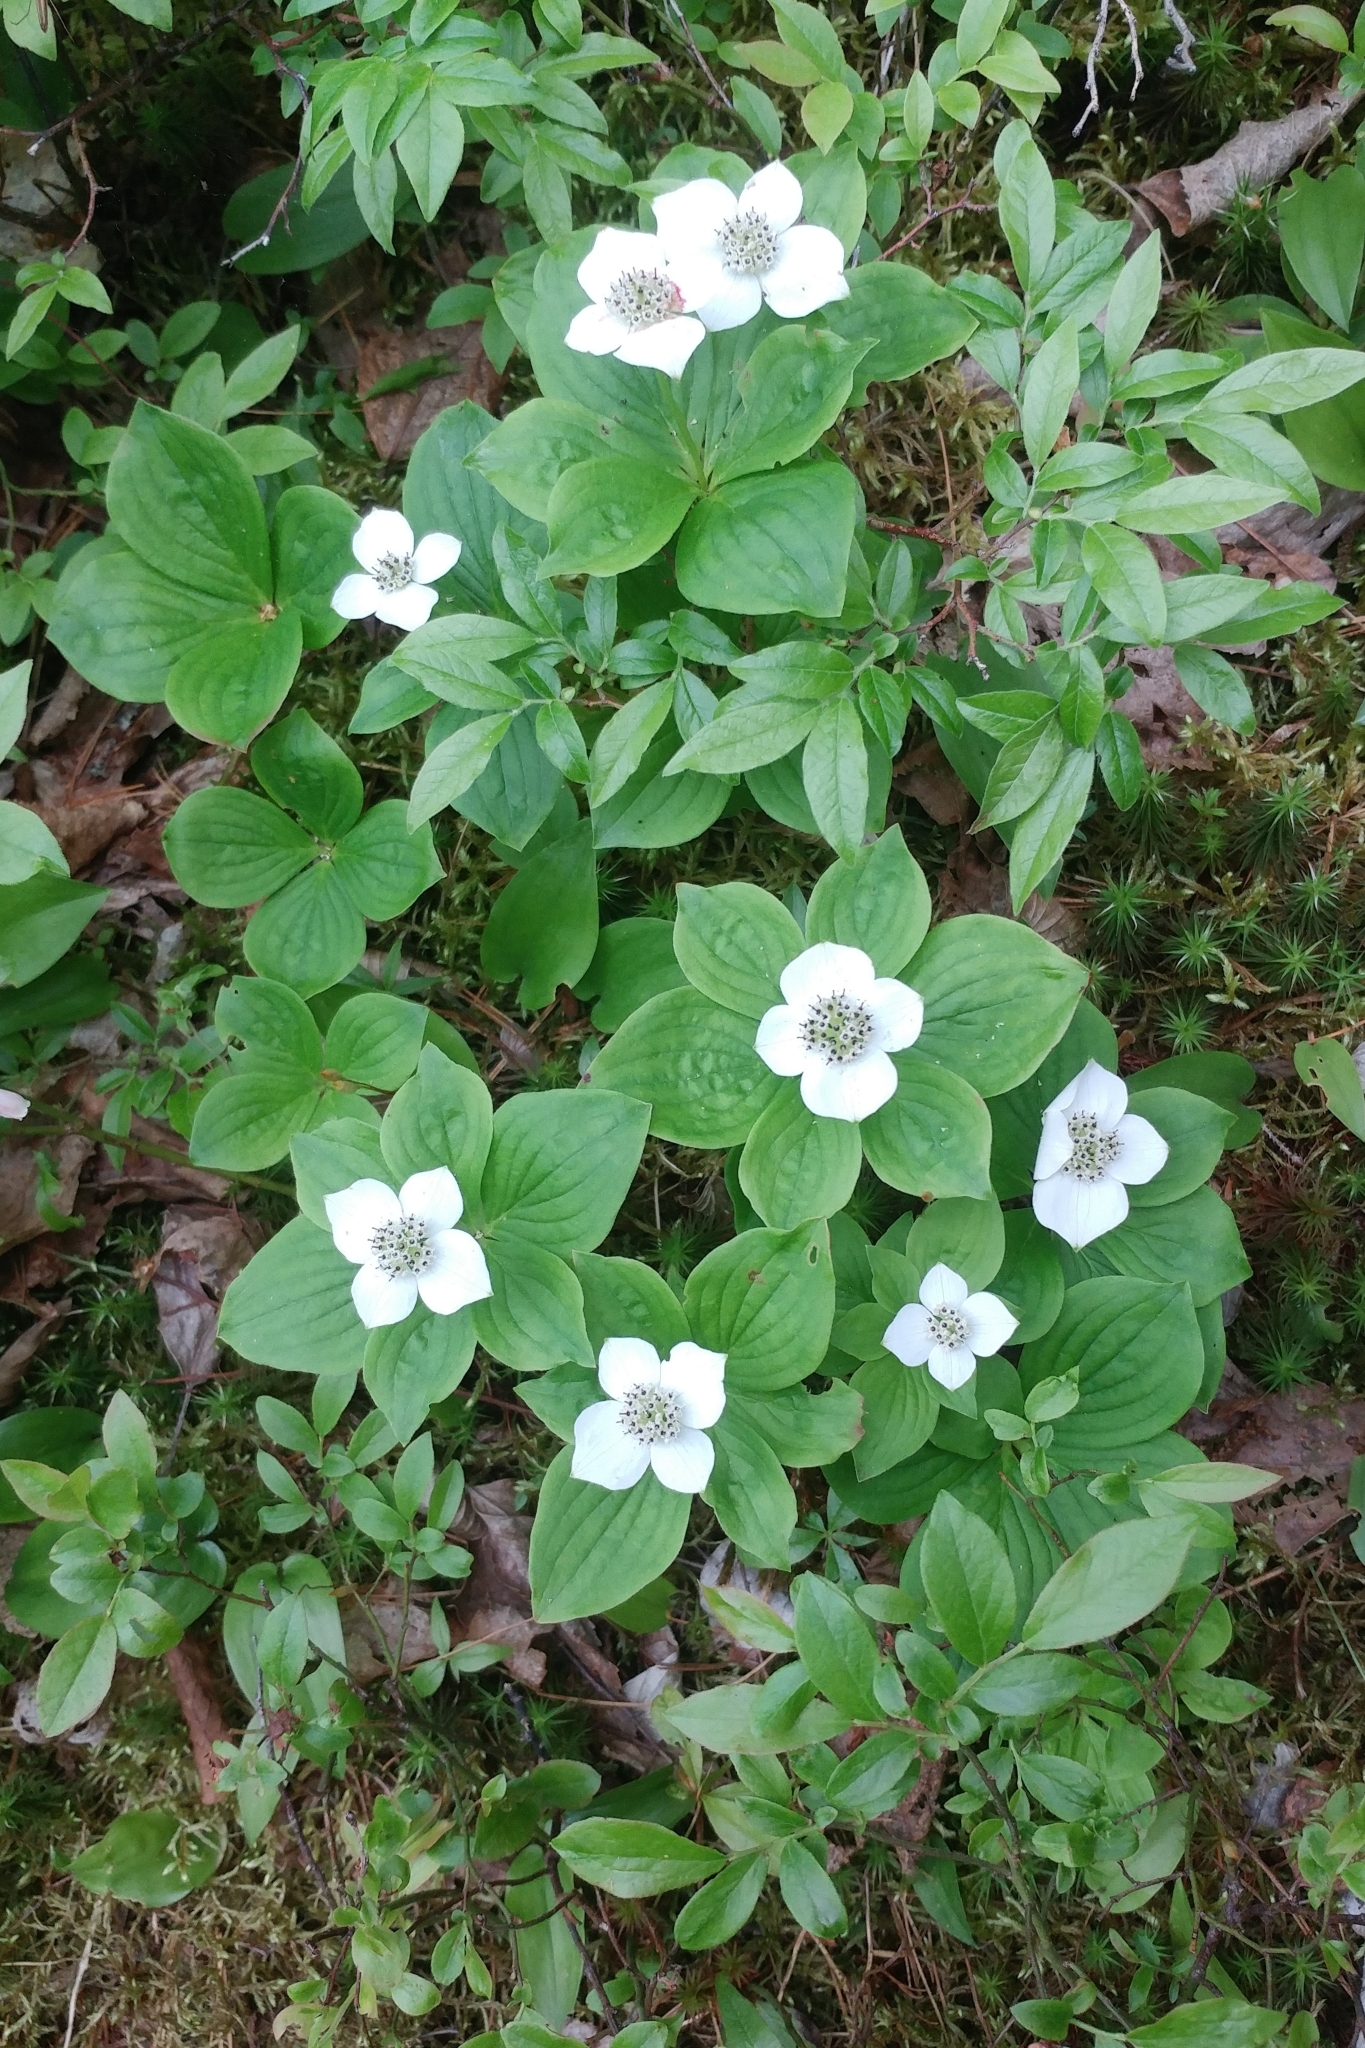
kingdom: Plantae
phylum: Tracheophyta
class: Magnoliopsida
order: Cornales
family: Cornaceae
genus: Cornus
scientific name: Cornus canadensis
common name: Creeping dogwood
